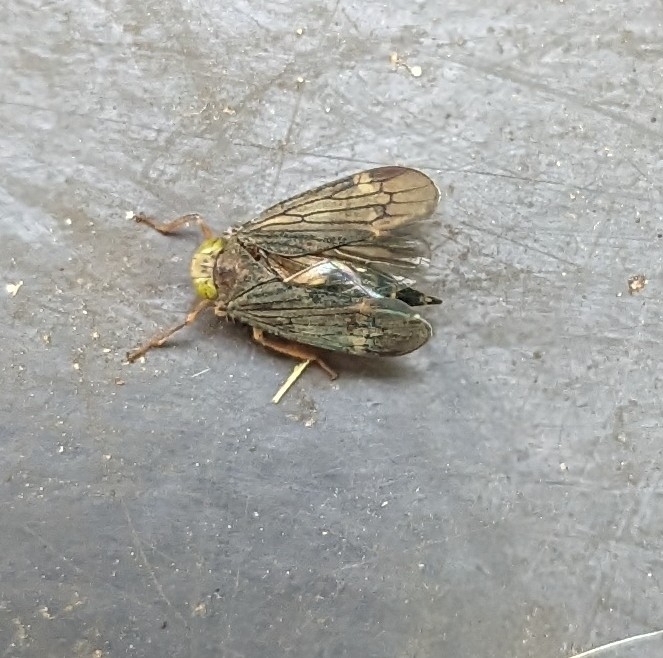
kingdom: Animalia
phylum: Arthropoda
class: Insecta
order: Hemiptera
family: Cicadellidae
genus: Jikradia
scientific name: Jikradia olitoria
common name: Coppery leafhopper
